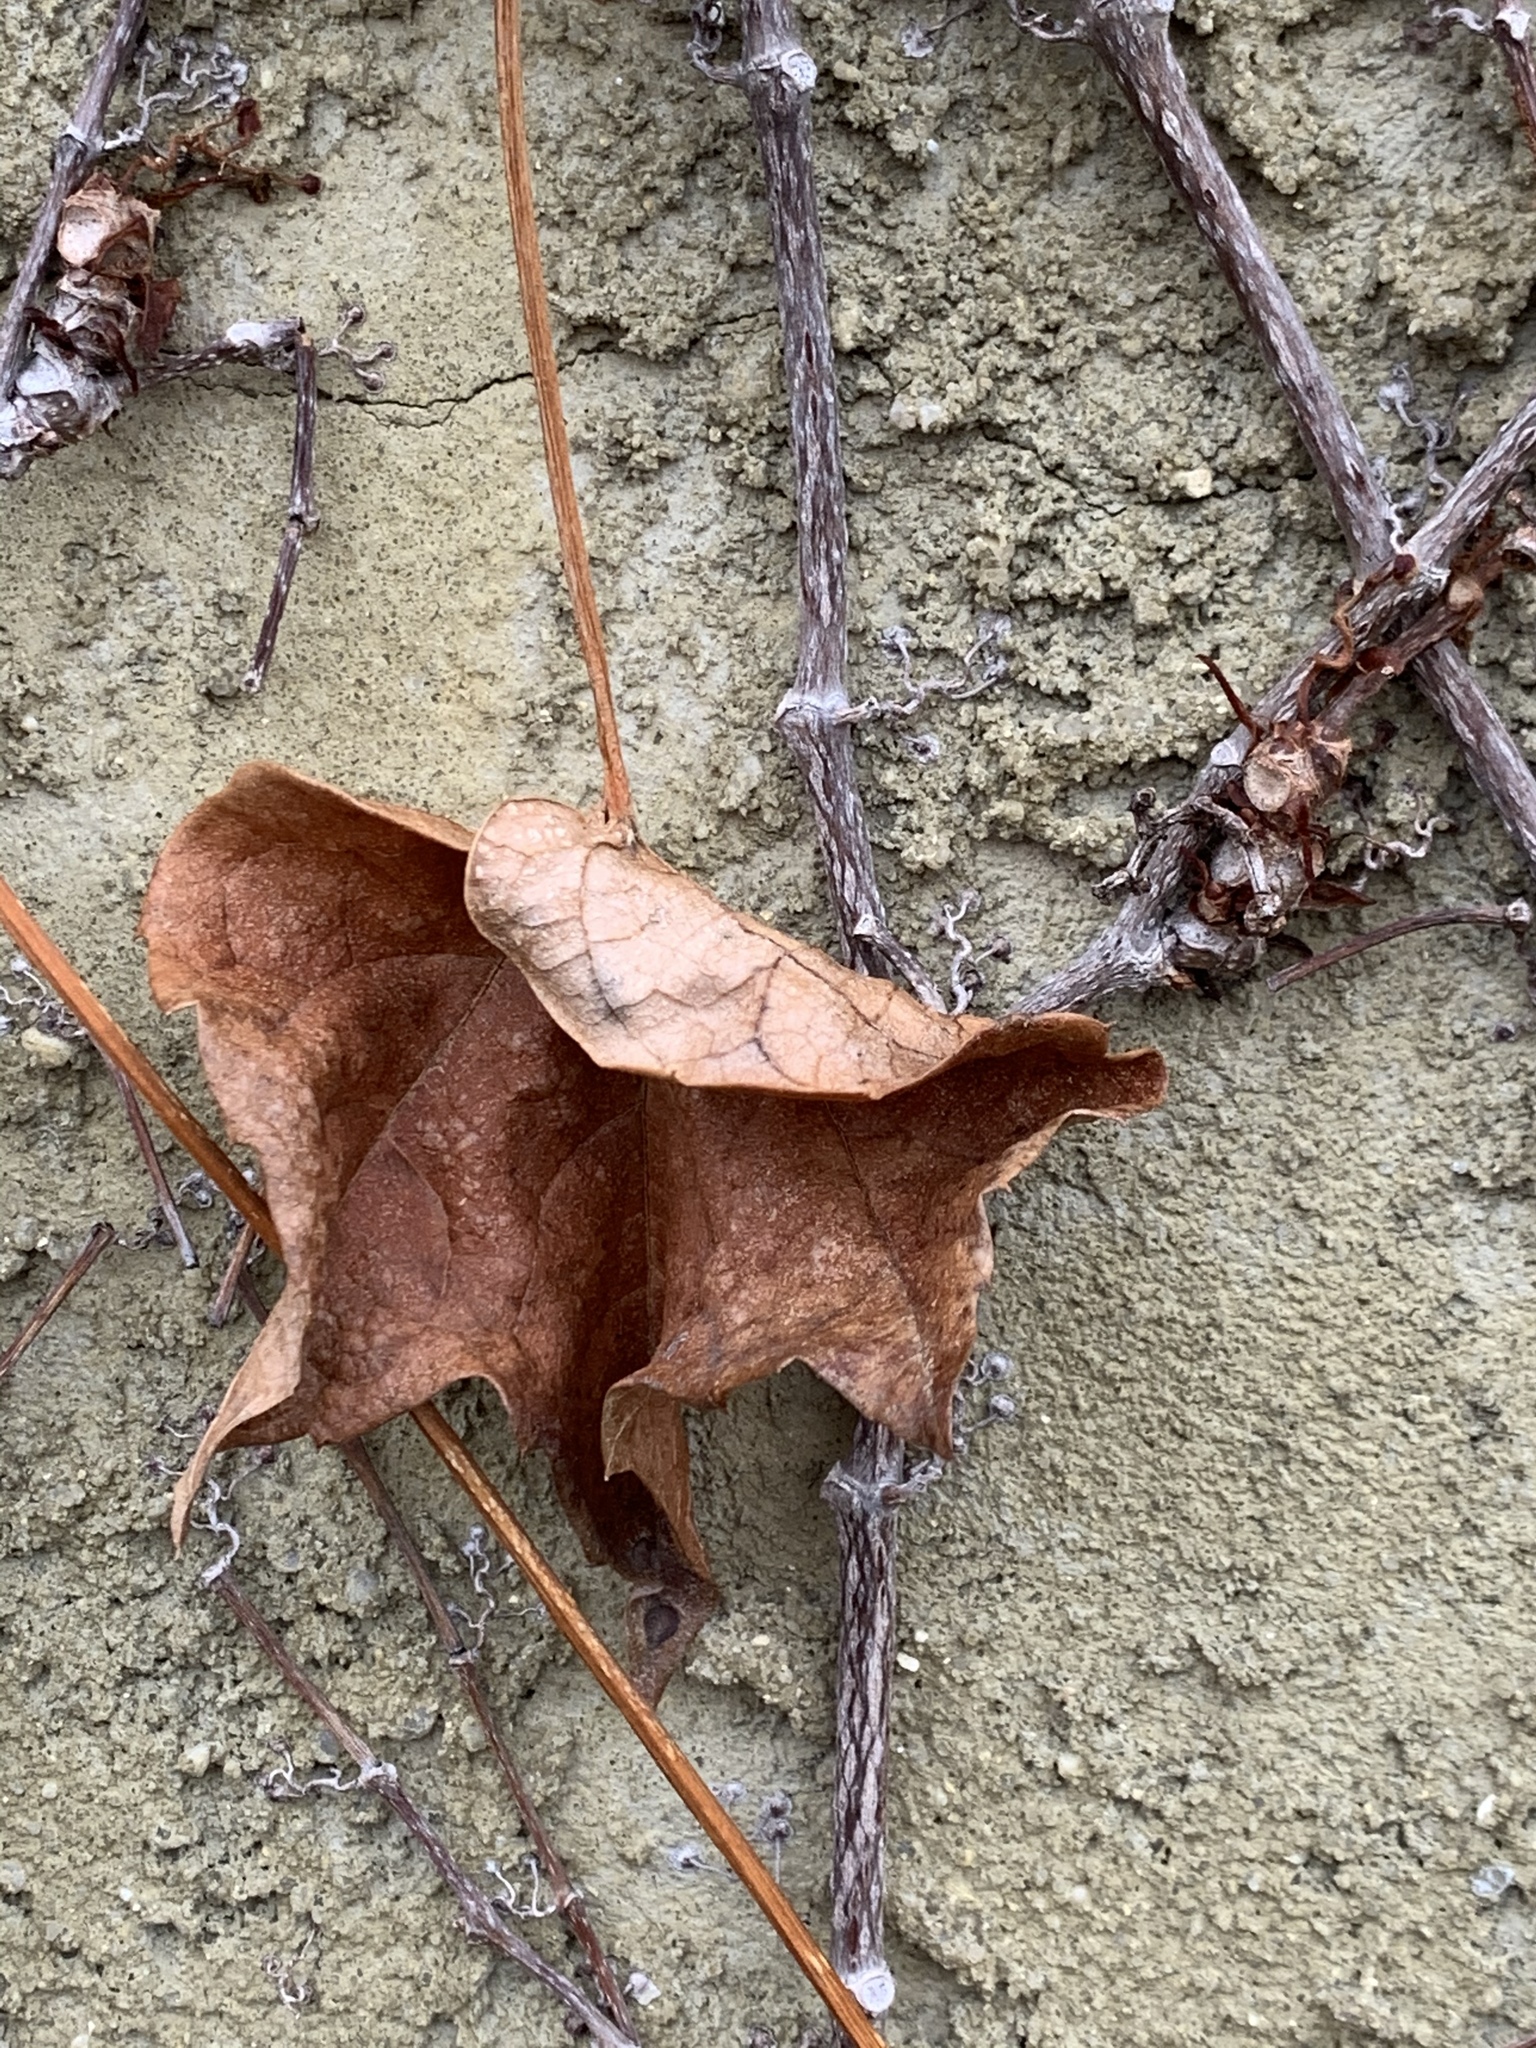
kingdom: Plantae
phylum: Tracheophyta
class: Magnoliopsida
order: Vitales
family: Vitaceae
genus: Parthenocissus
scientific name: Parthenocissus tricuspidata
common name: Boston ivy
